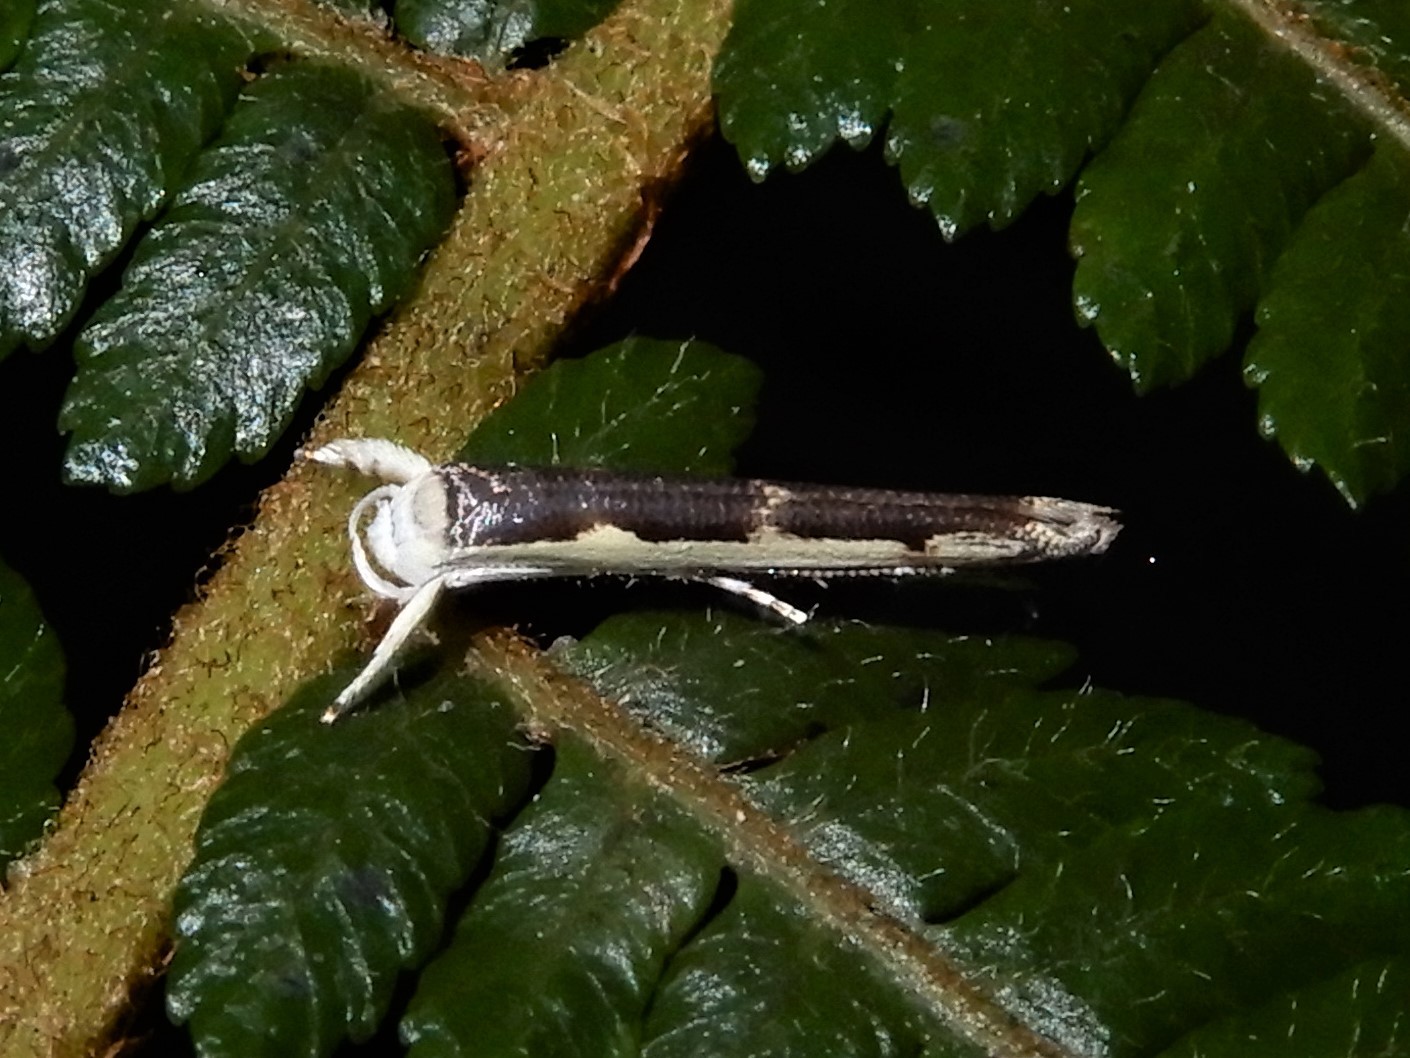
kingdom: Animalia
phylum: Arthropoda
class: Insecta
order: Lepidoptera
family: Roeslerstammiidae
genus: Vanicela
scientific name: Vanicela disjunctella
